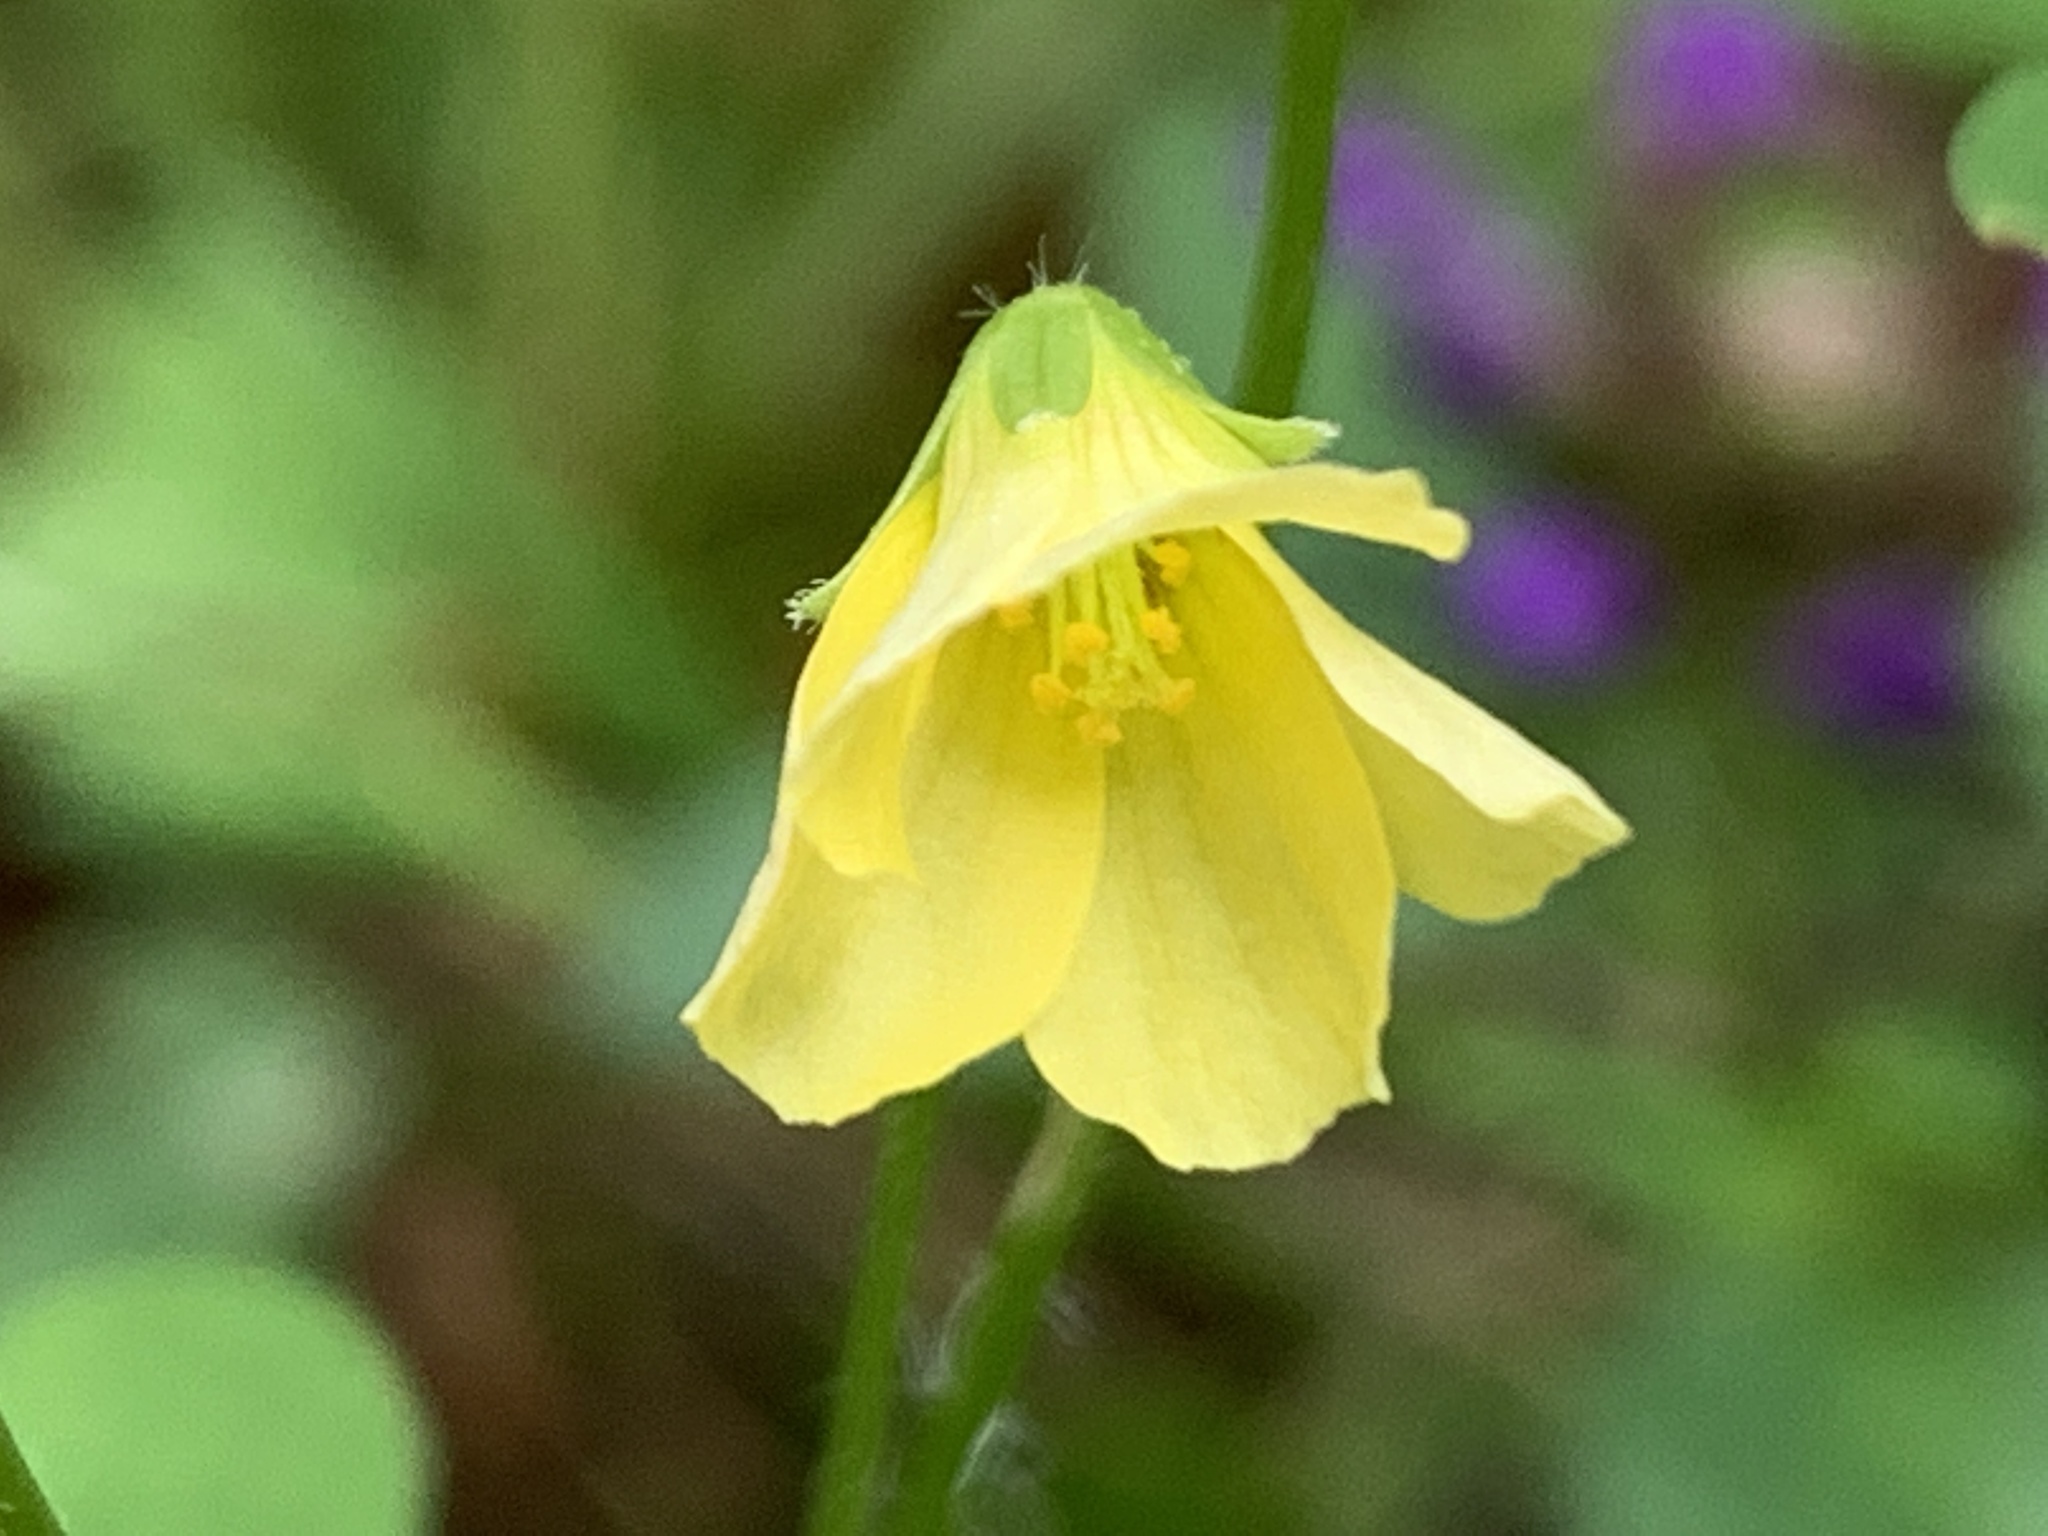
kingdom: Plantae
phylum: Tracheophyta
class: Magnoliopsida
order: Oxalidales
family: Oxalidaceae
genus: Oxalis
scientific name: Oxalis stricta
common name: Upright yellow-sorrel
